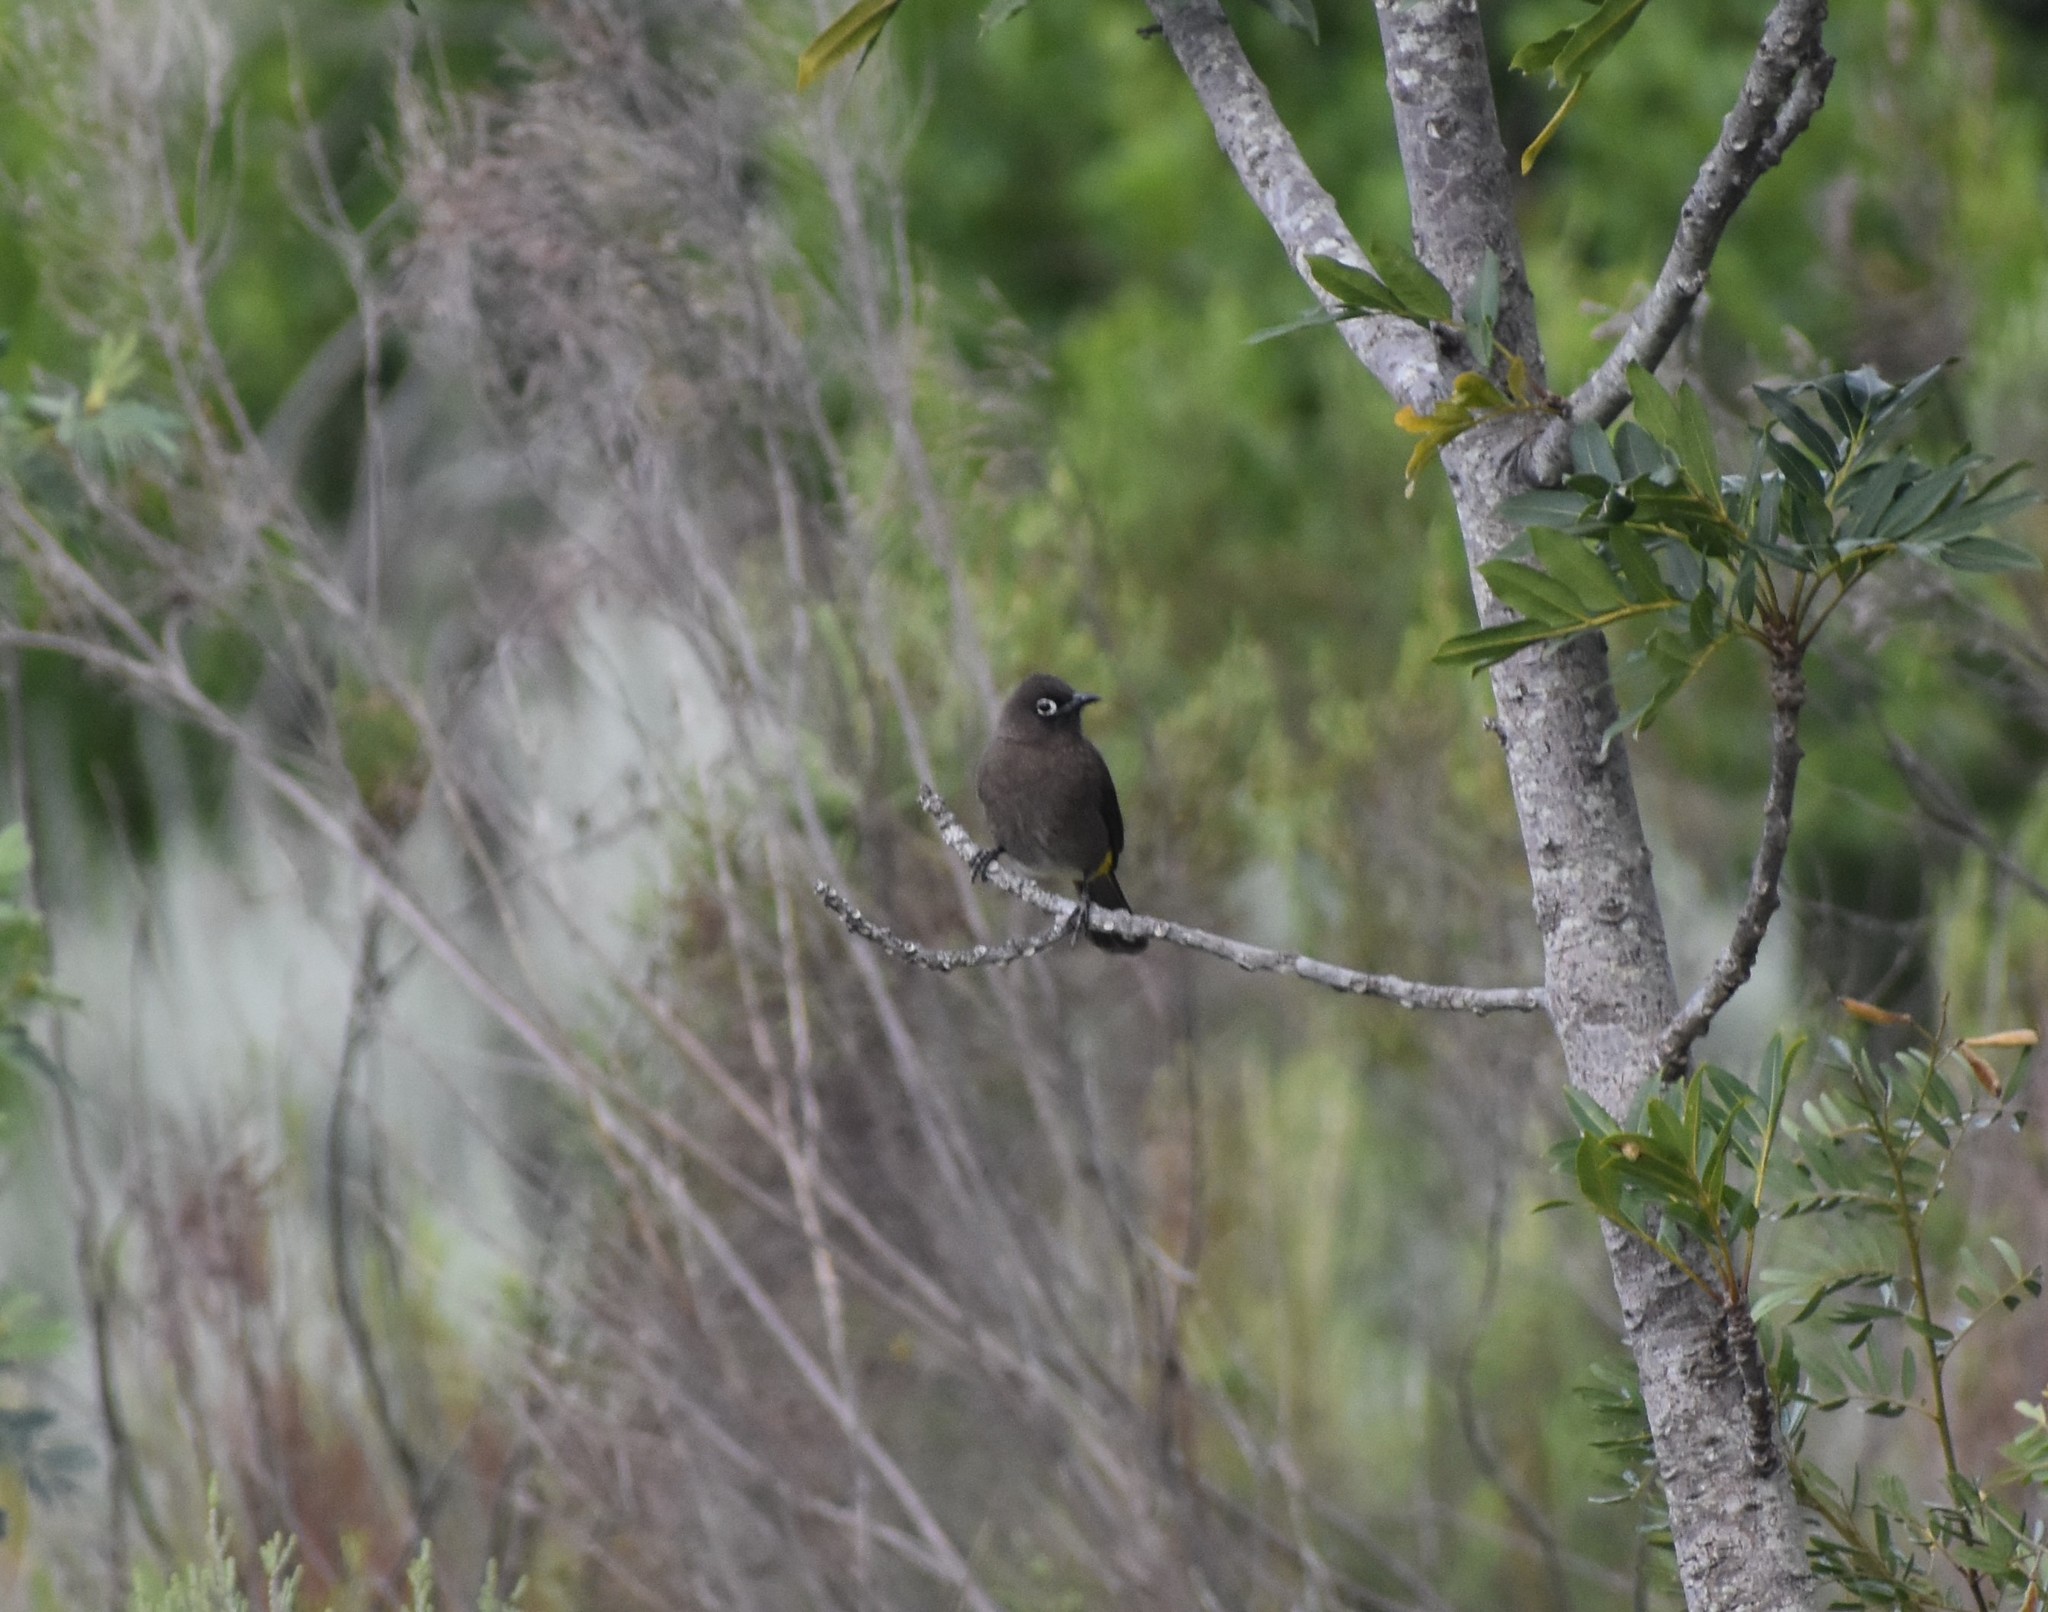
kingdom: Animalia
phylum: Chordata
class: Aves
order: Passeriformes
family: Pycnonotidae
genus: Pycnonotus
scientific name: Pycnonotus capensis
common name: Cape bulbul
